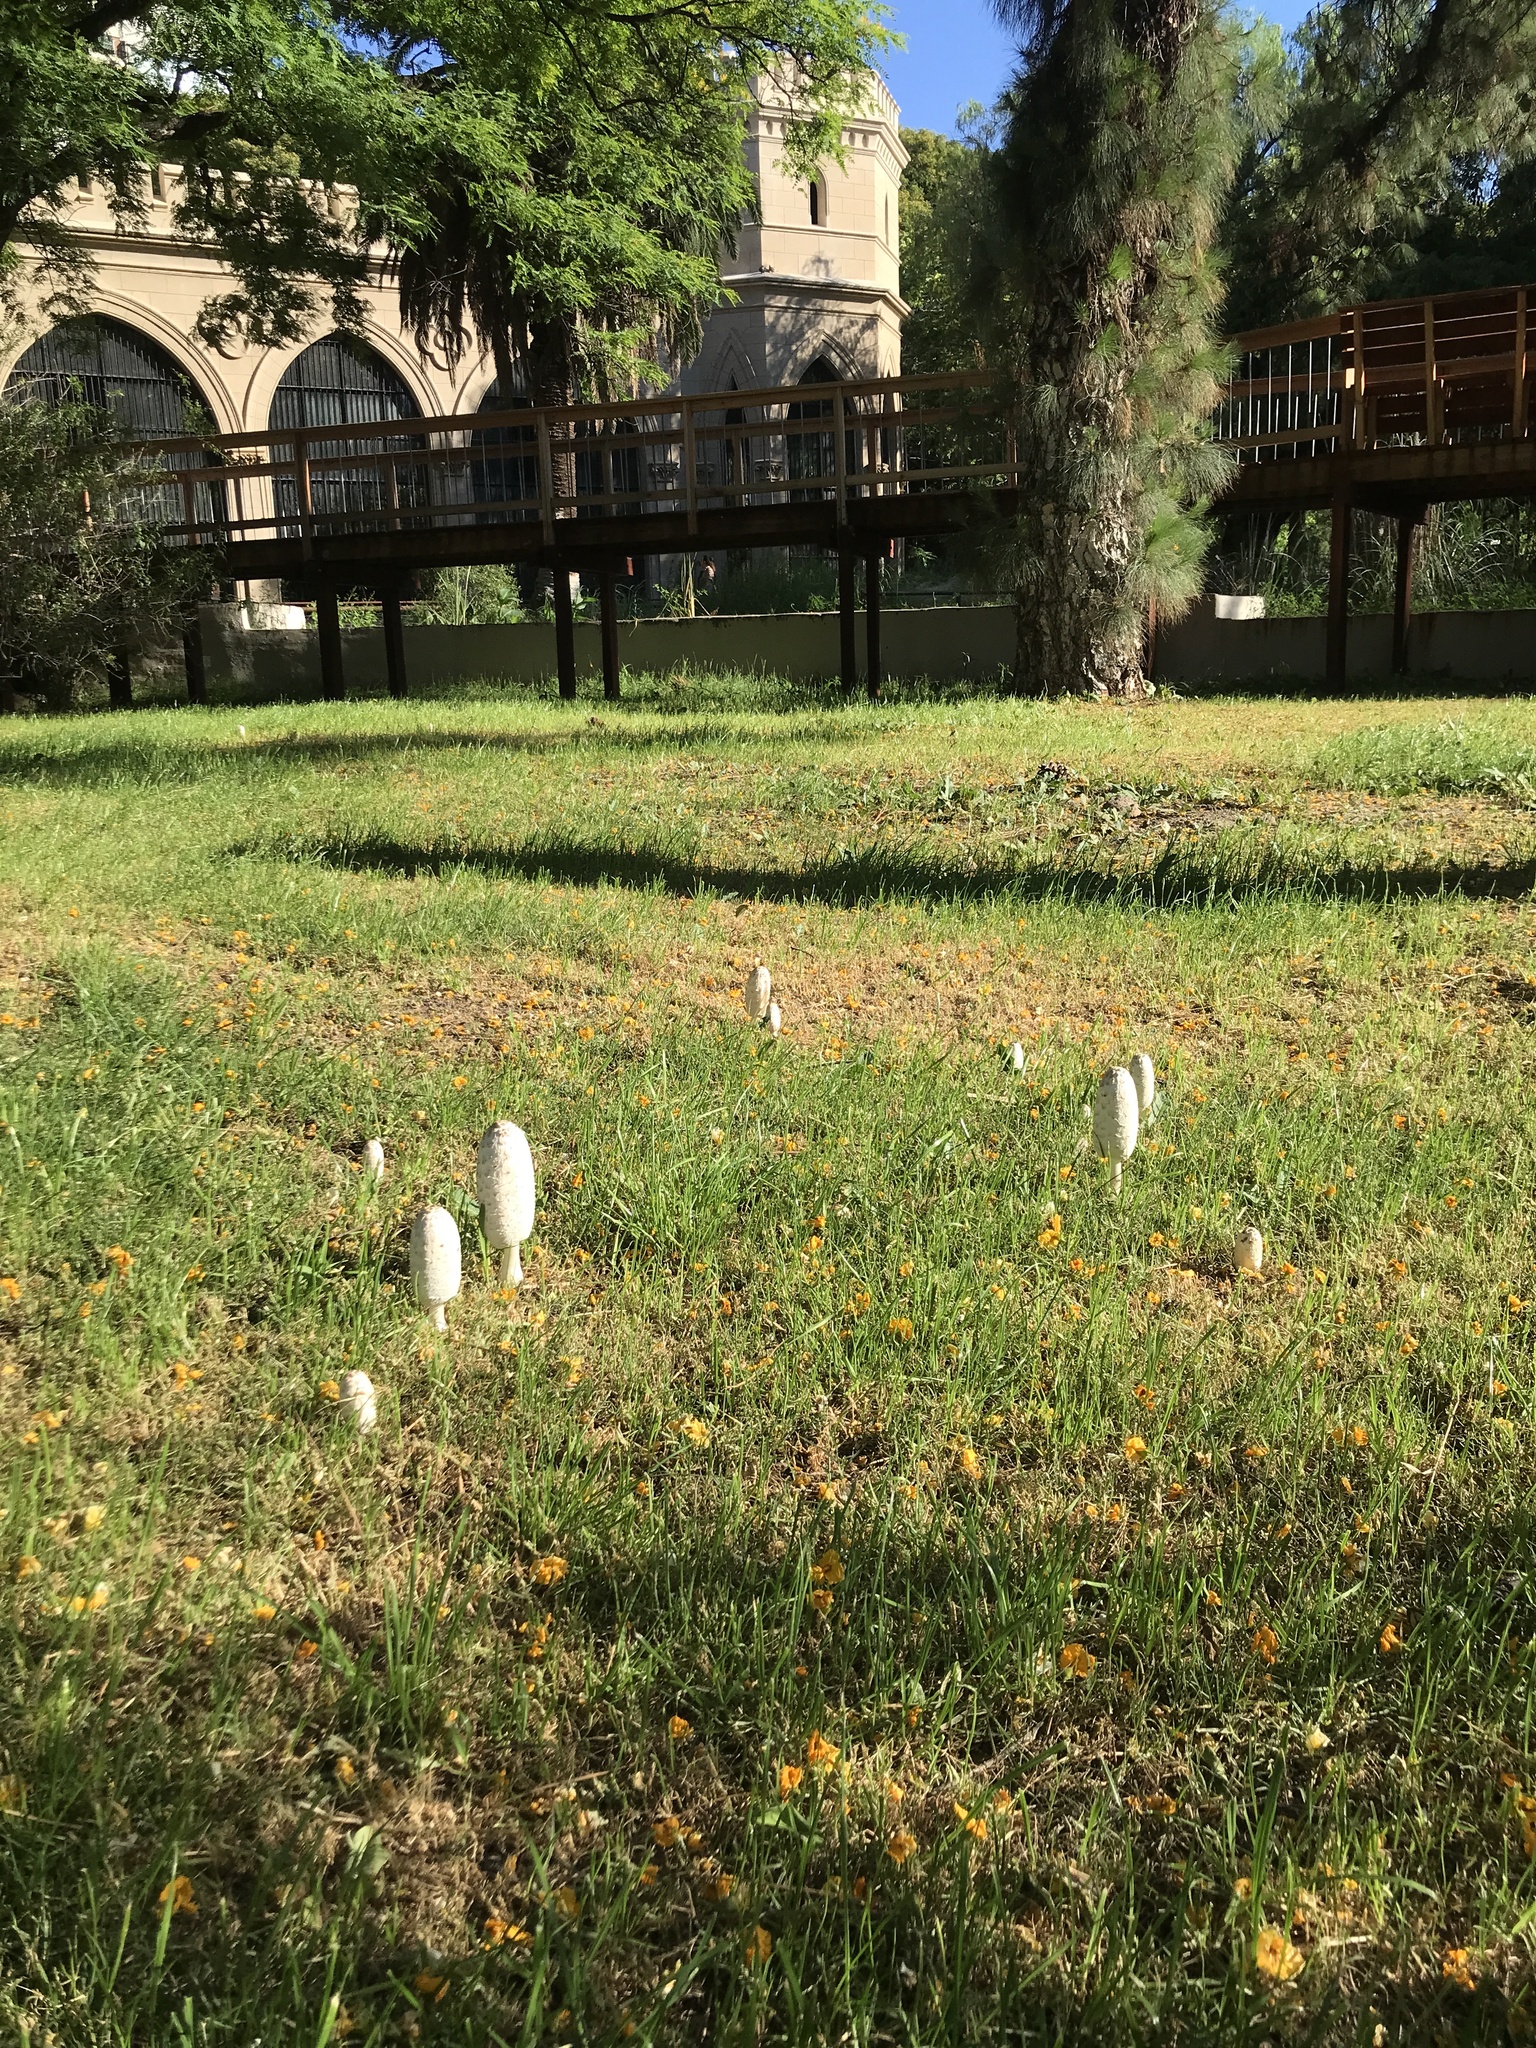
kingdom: Fungi
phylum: Basidiomycota
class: Agaricomycetes
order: Agaricales
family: Agaricaceae
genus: Coprinus
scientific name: Coprinus comatus
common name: Lawyer's wig
